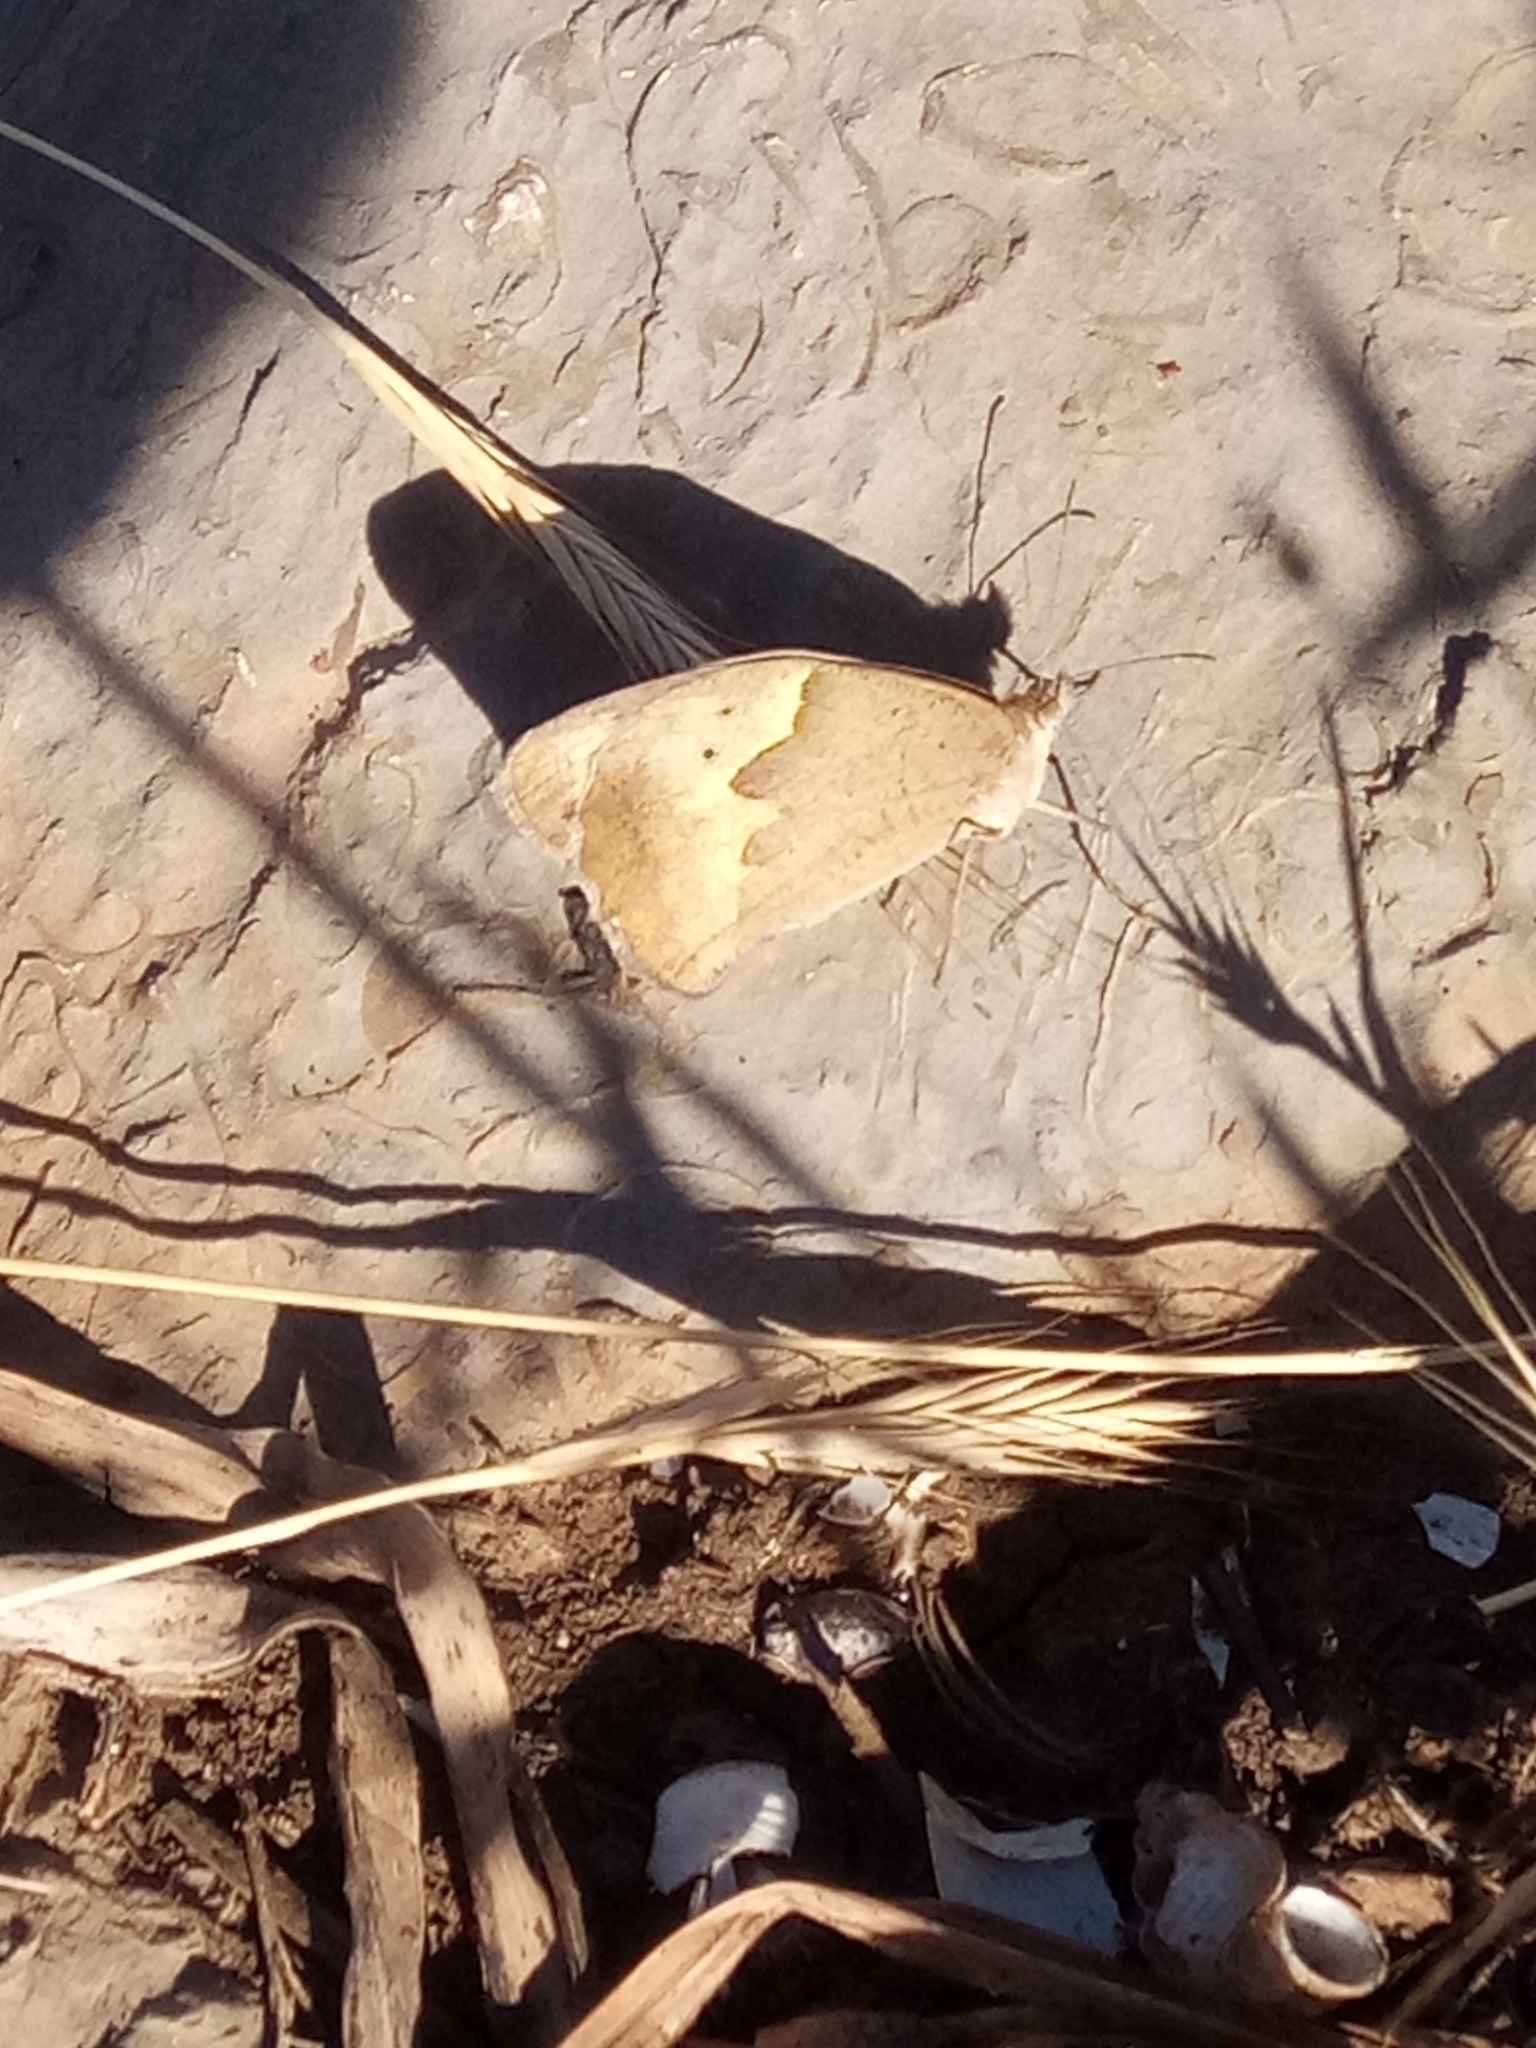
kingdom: Animalia
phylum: Arthropoda
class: Insecta
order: Lepidoptera
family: Nymphalidae
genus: Maniola
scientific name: Maniola jurtina
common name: Meadow brown
